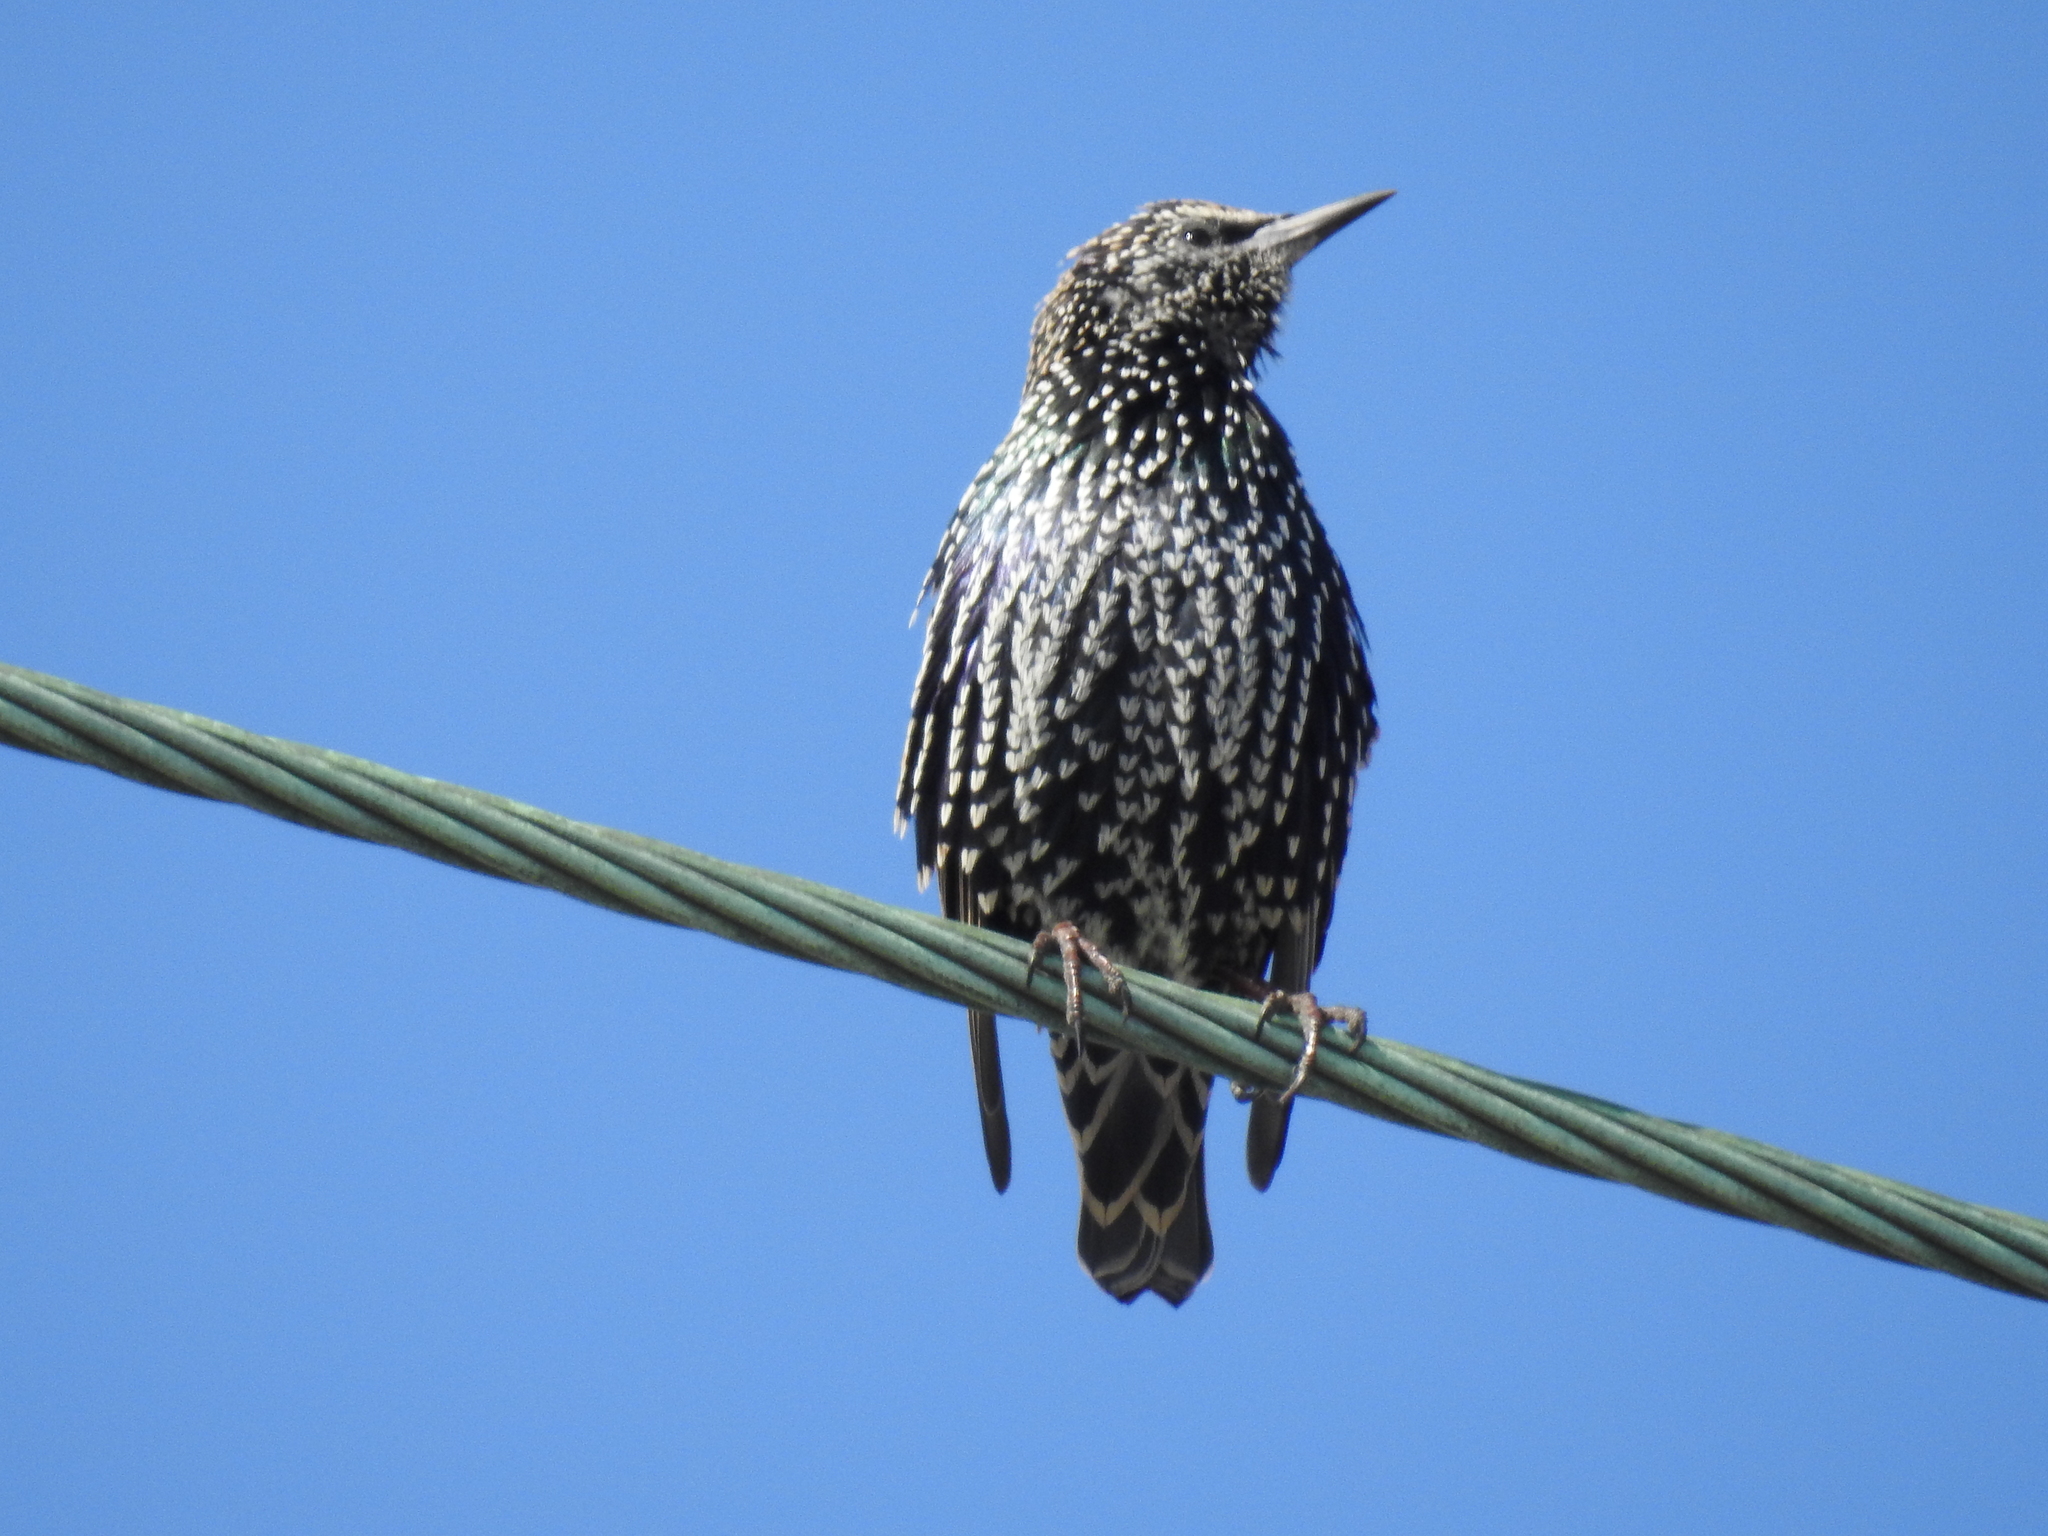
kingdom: Animalia
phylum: Chordata
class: Aves
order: Passeriformes
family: Sturnidae
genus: Sturnus
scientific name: Sturnus vulgaris
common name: Common starling
